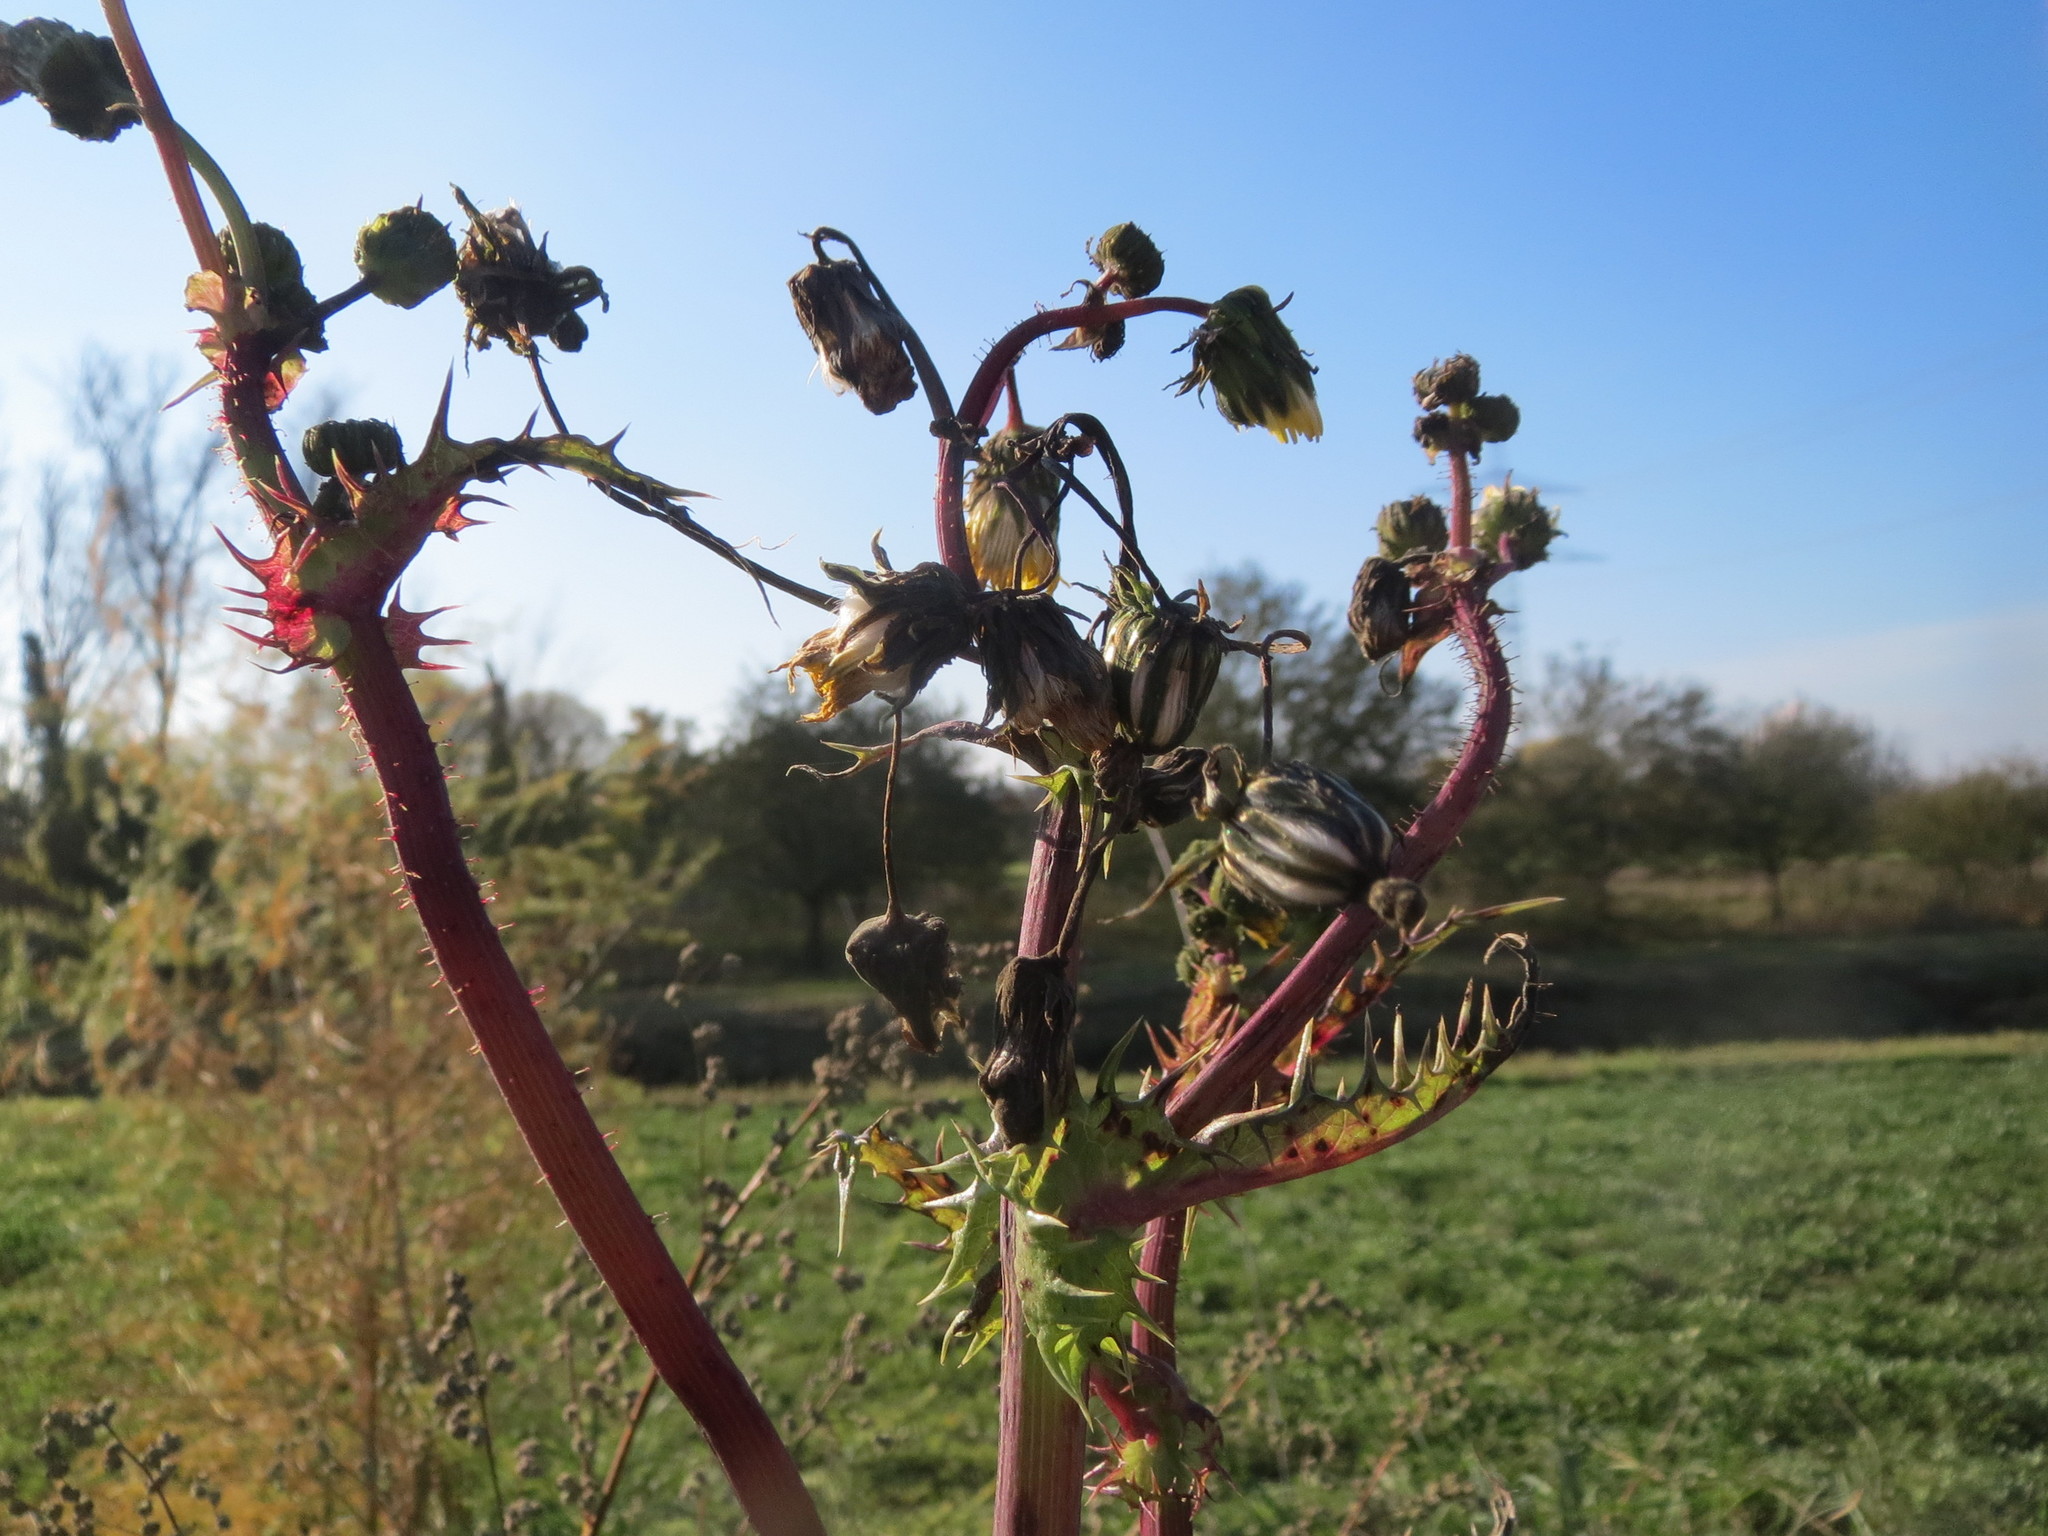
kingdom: Plantae
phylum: Tracheophyta
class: Magnoliopsida
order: Asterales
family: Asteraceae
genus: Sonchus
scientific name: Sonchus asper
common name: Prickly sow-thistle
